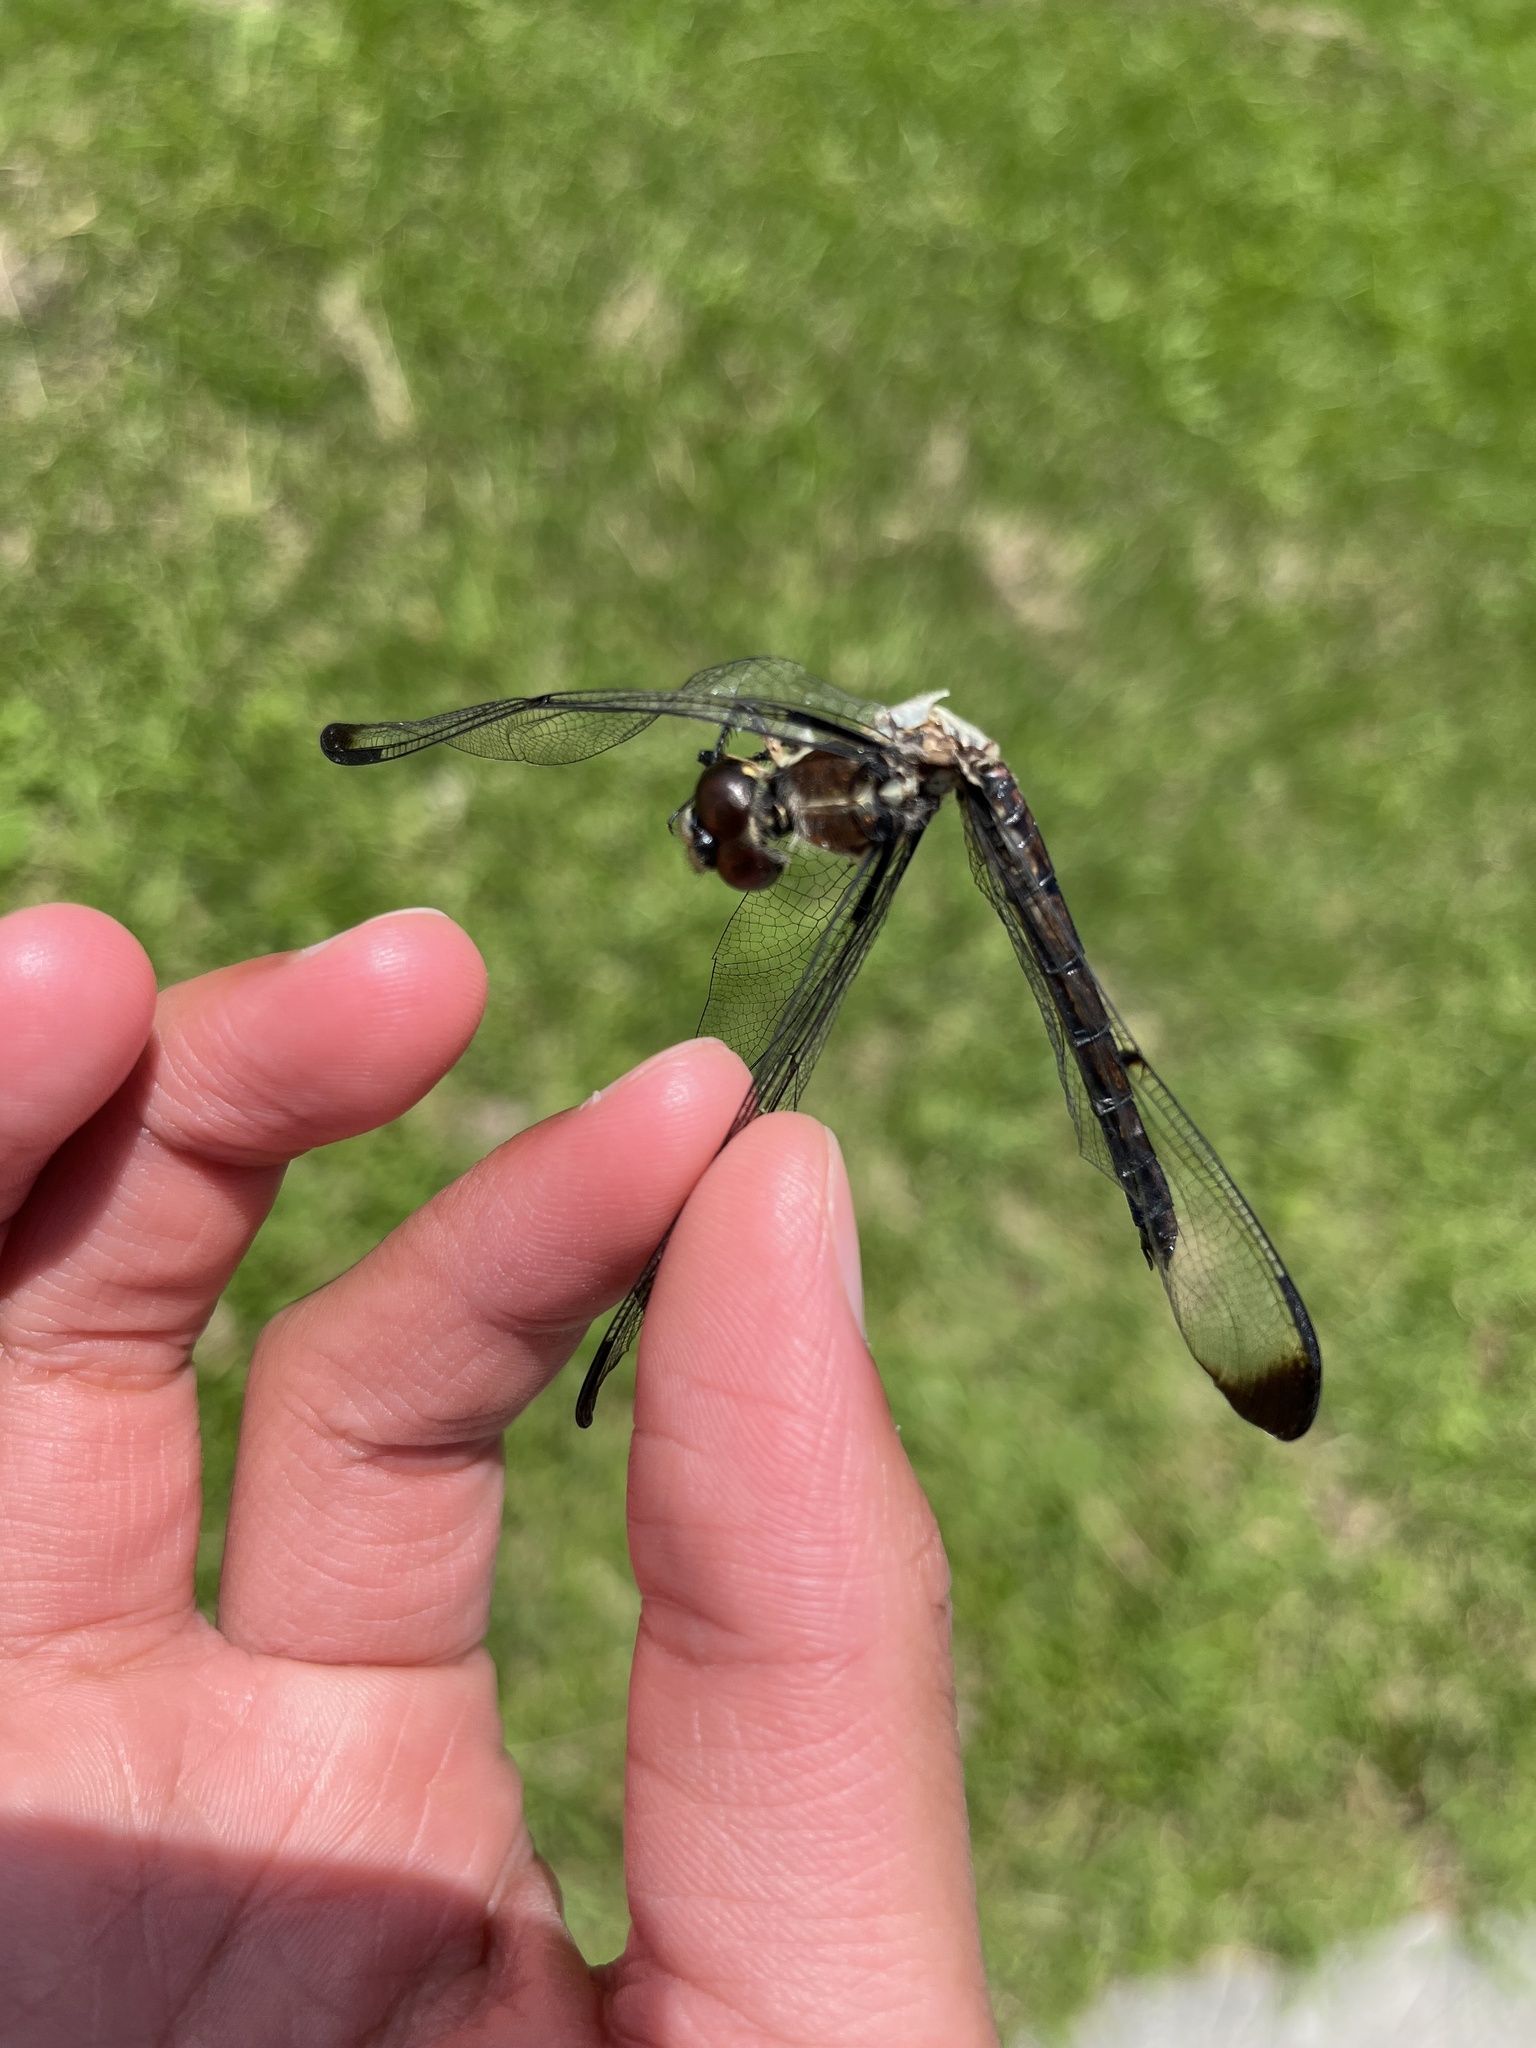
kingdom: Animalia
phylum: Arthropoda
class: Insecta
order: Odonata
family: Libellulidae
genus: Libellula
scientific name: Libellula vibrans
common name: Great blue skimmer
